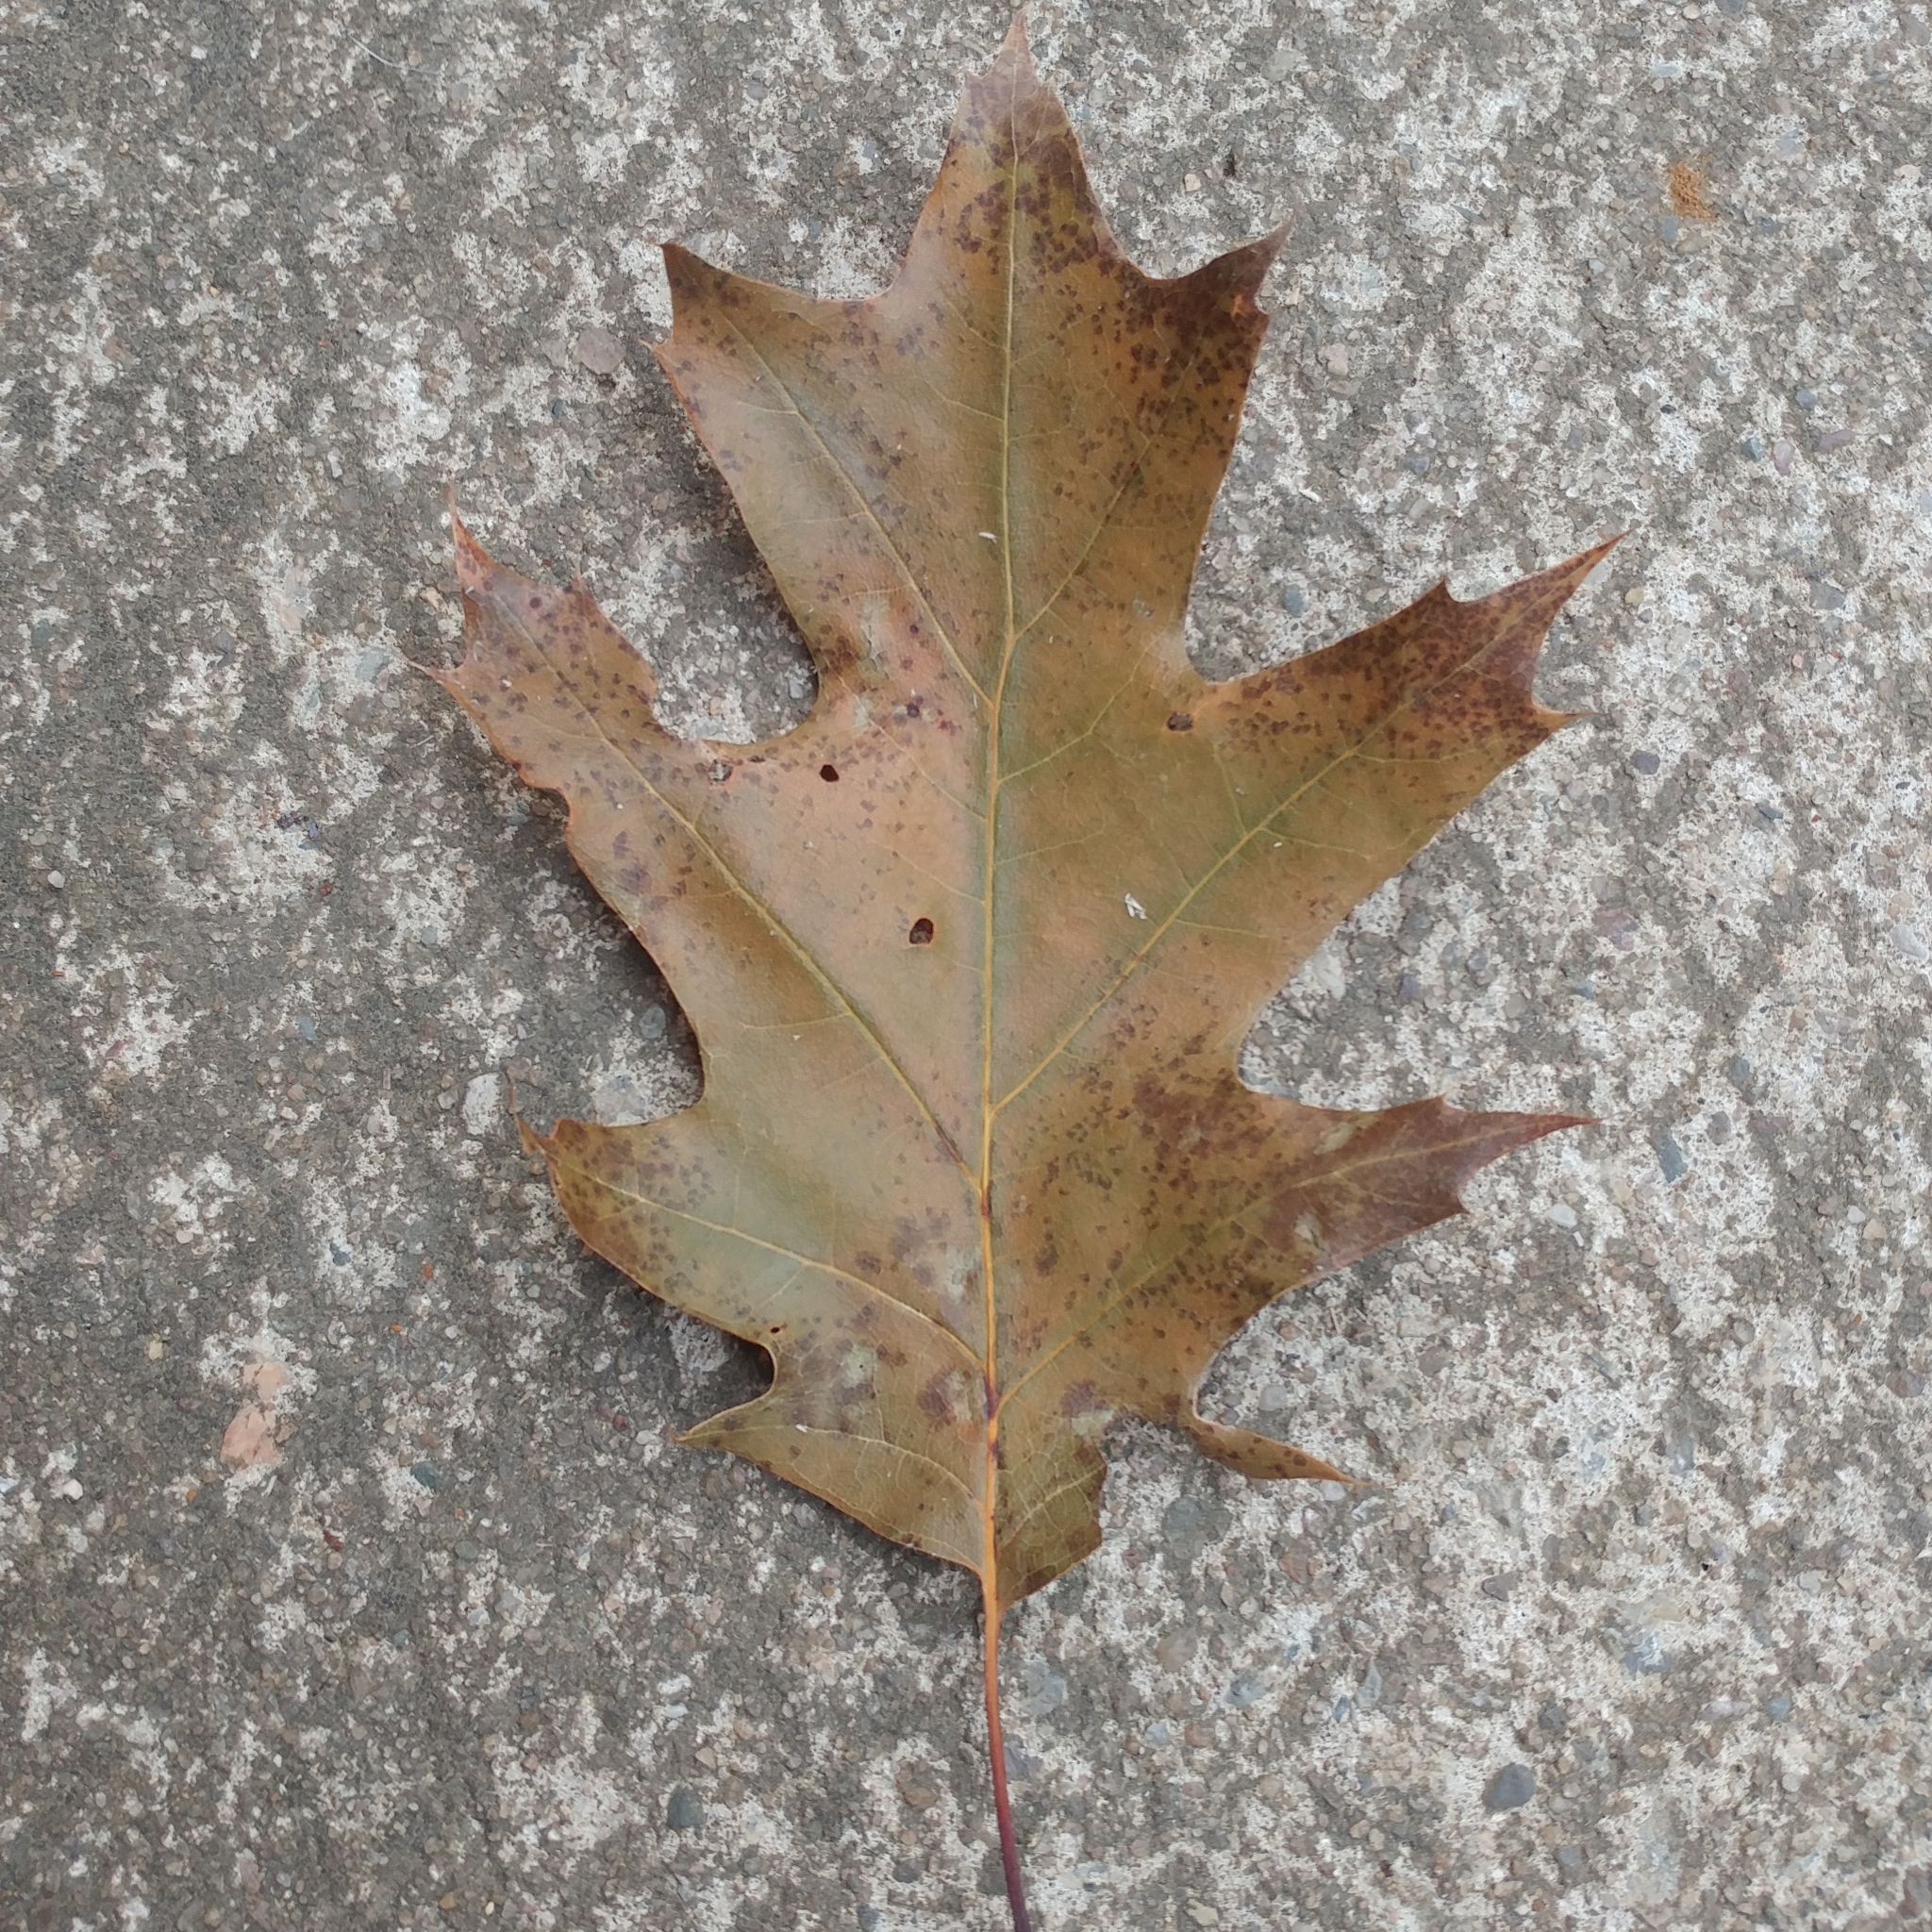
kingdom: Plantae
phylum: Tracheophyta
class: Magnoliopsida
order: Fagales
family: Fagaceae
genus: Quercus
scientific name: Quercus rubra
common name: Red oak
